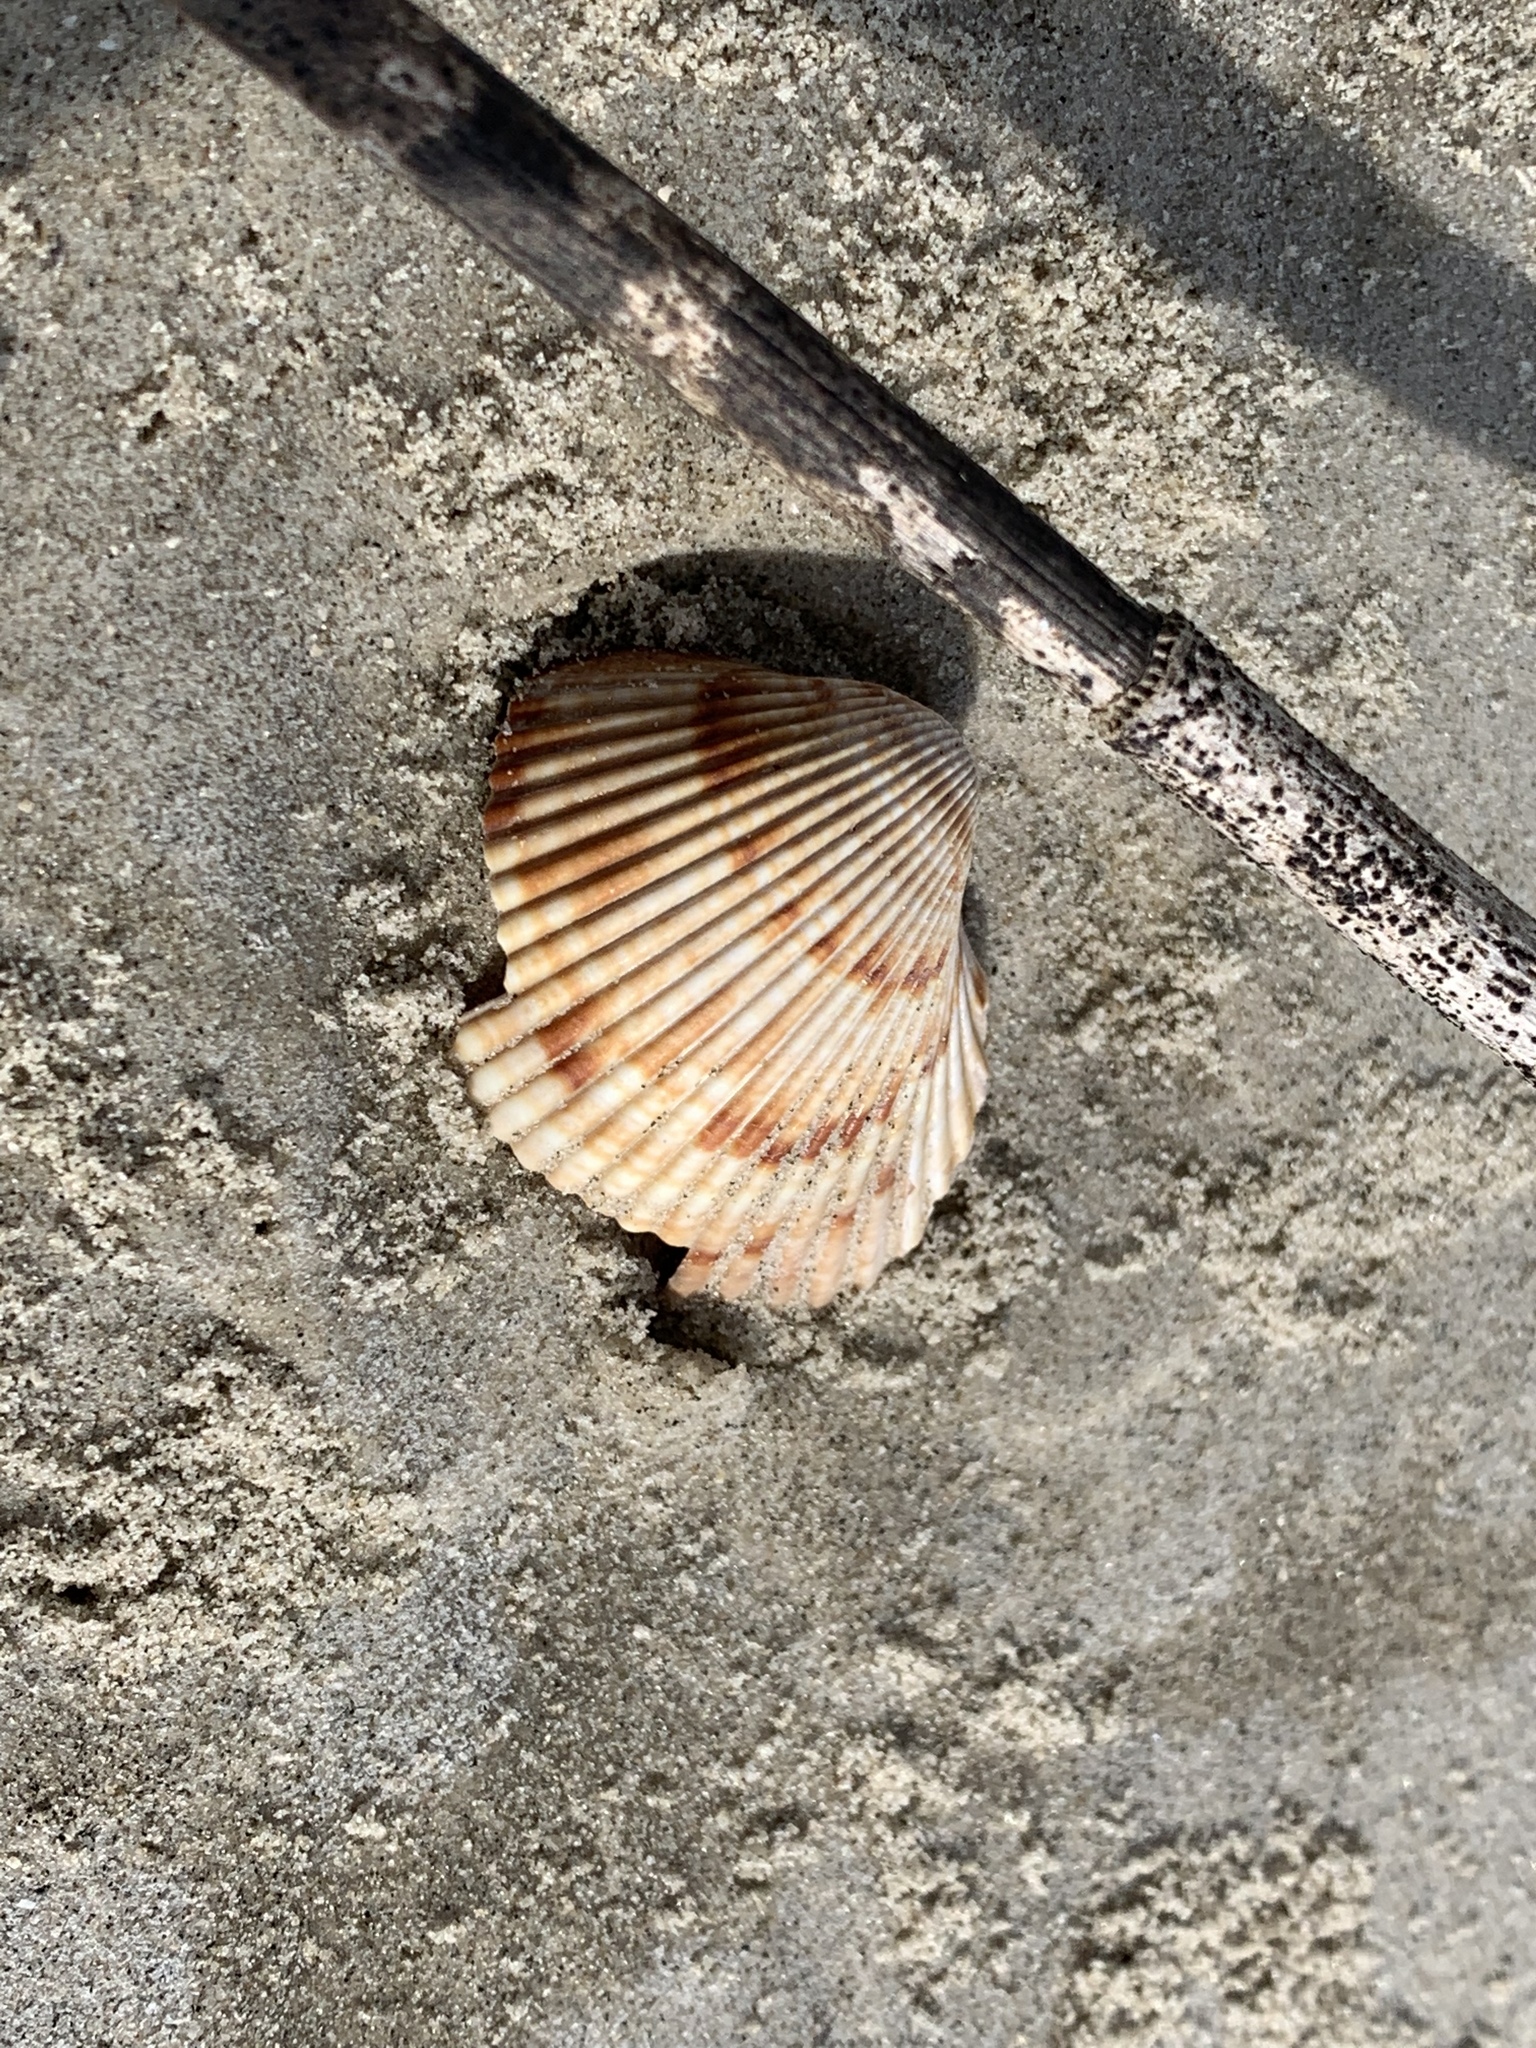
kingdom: Animalia
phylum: Mollusca
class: Bivalvia
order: Cardiida
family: Cardiidae
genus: Dinocardium
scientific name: Dinocardium robustum
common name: Atlantic giant cockle
